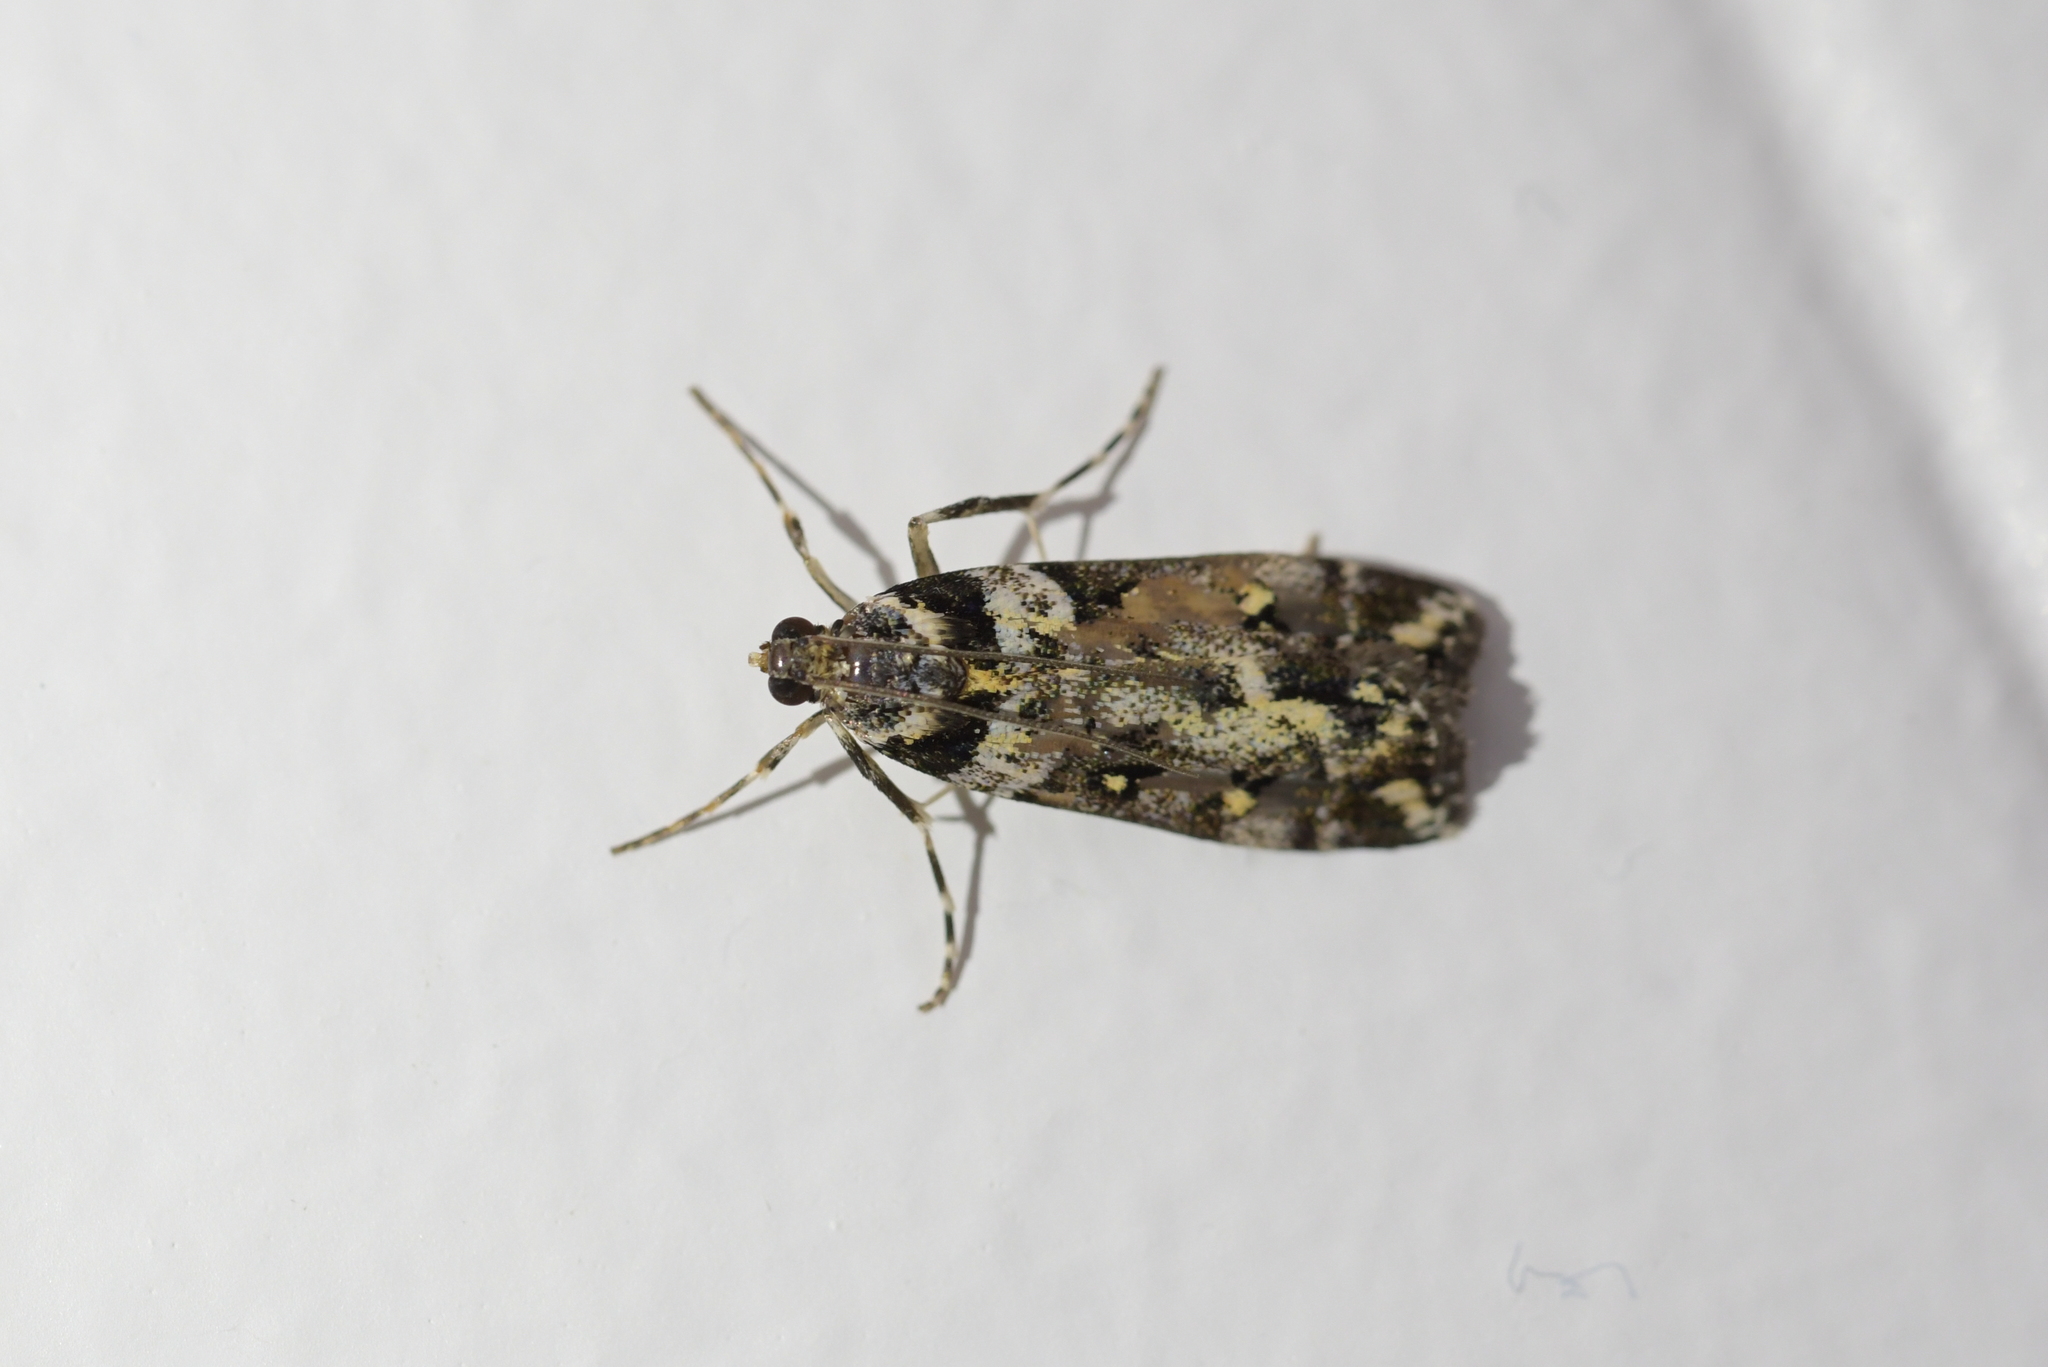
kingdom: Animalia
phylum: Arthropoda
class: Insecta
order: Lepidoptera
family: Crambidae
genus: Eudonia
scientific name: Eudonia diphtheralis
